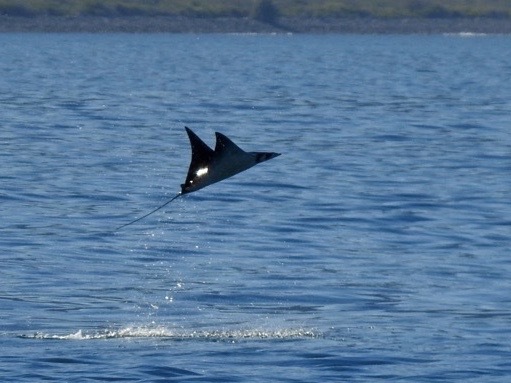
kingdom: Animalia
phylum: Chordata
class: Elasmobranchii
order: Myliobatiformes
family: Myliobatidae
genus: Mobula
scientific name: Mobula munkiana
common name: Pygmy devil ray
